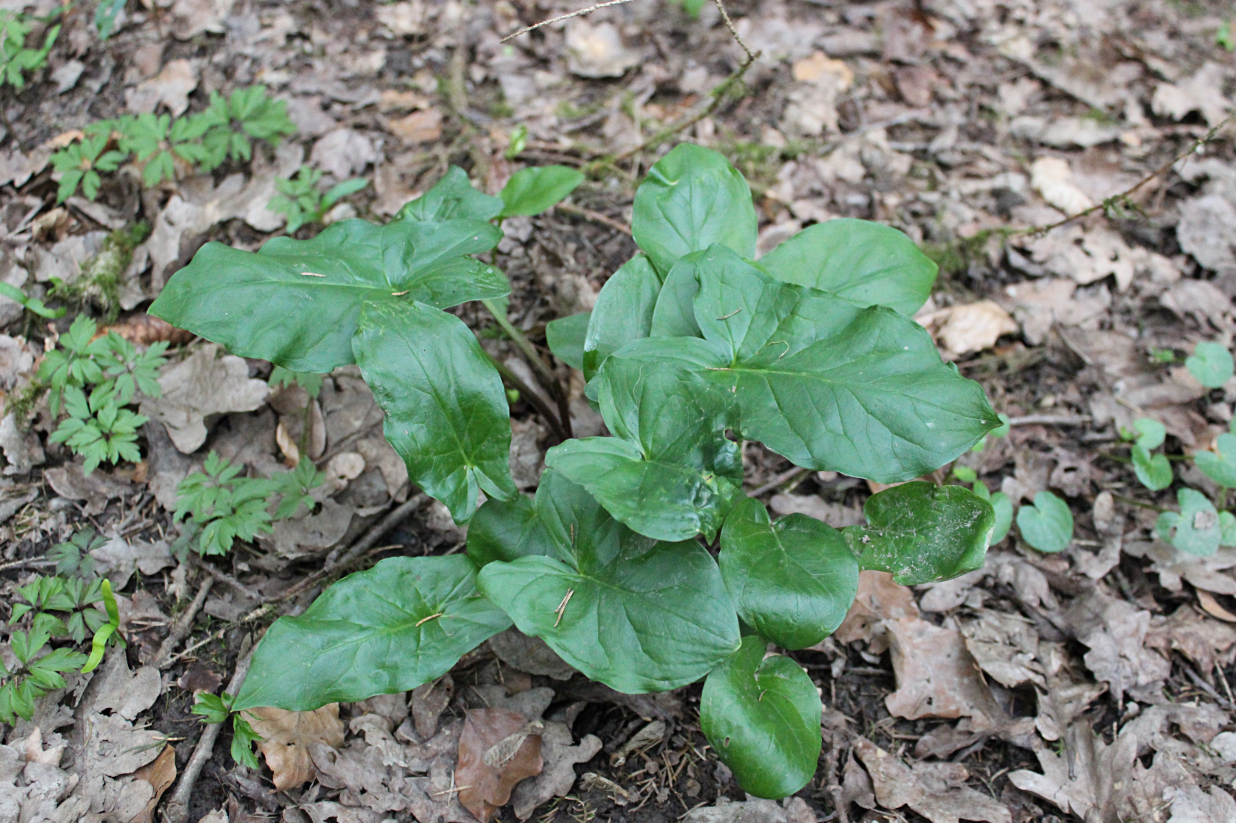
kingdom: Plantae
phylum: Tracheophyta
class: Liliopsida
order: Alismatales
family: Araceae
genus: Arum
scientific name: Arum maculatum
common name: Lords-and-ladies
